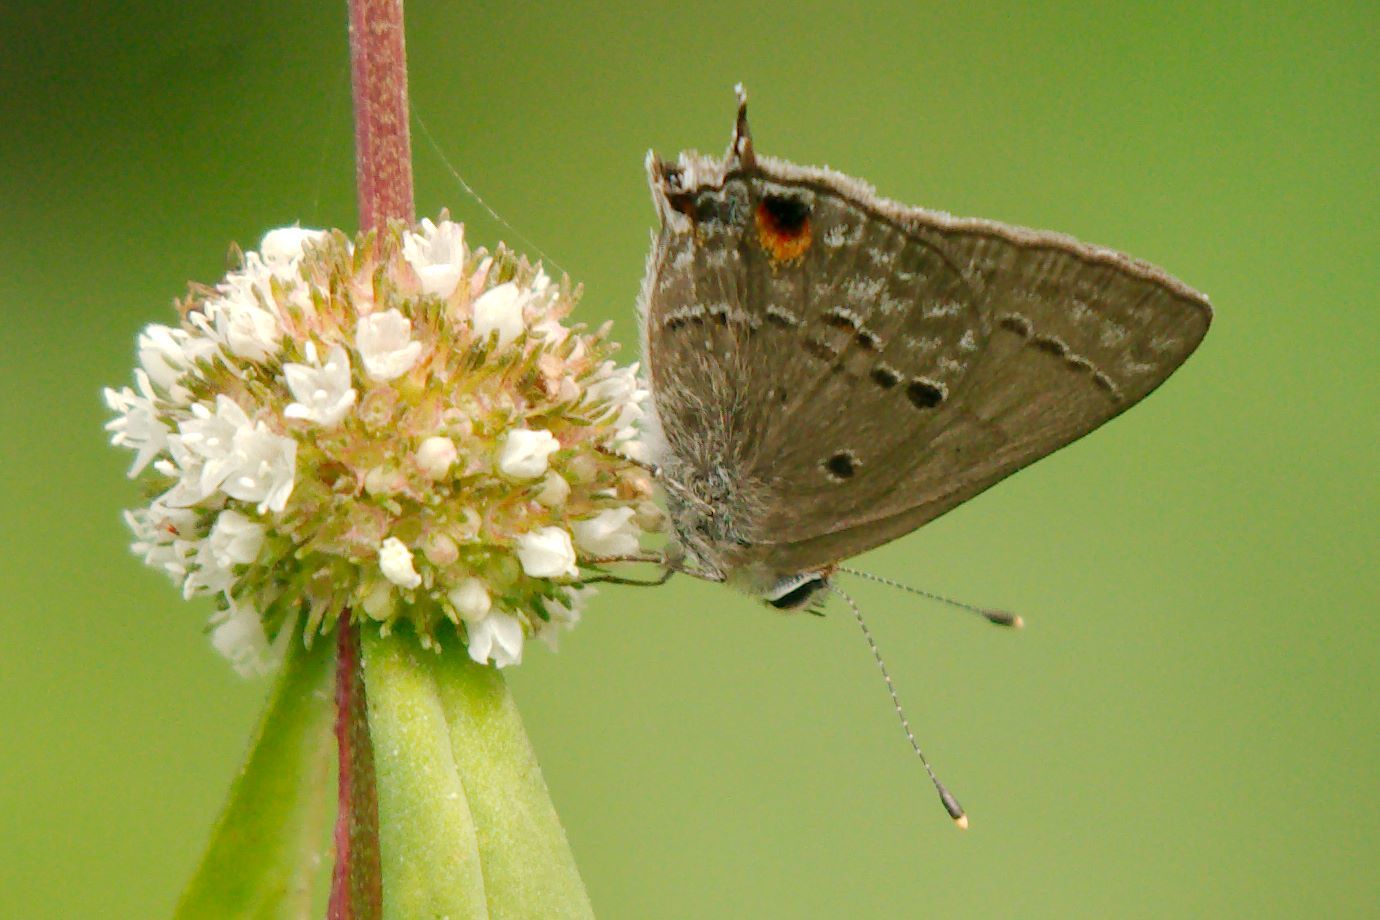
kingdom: Animalia
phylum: Arthropoda
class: Insecta
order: Lepidoptera
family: Lycaenidae
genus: Callicista
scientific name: Callicista columella
